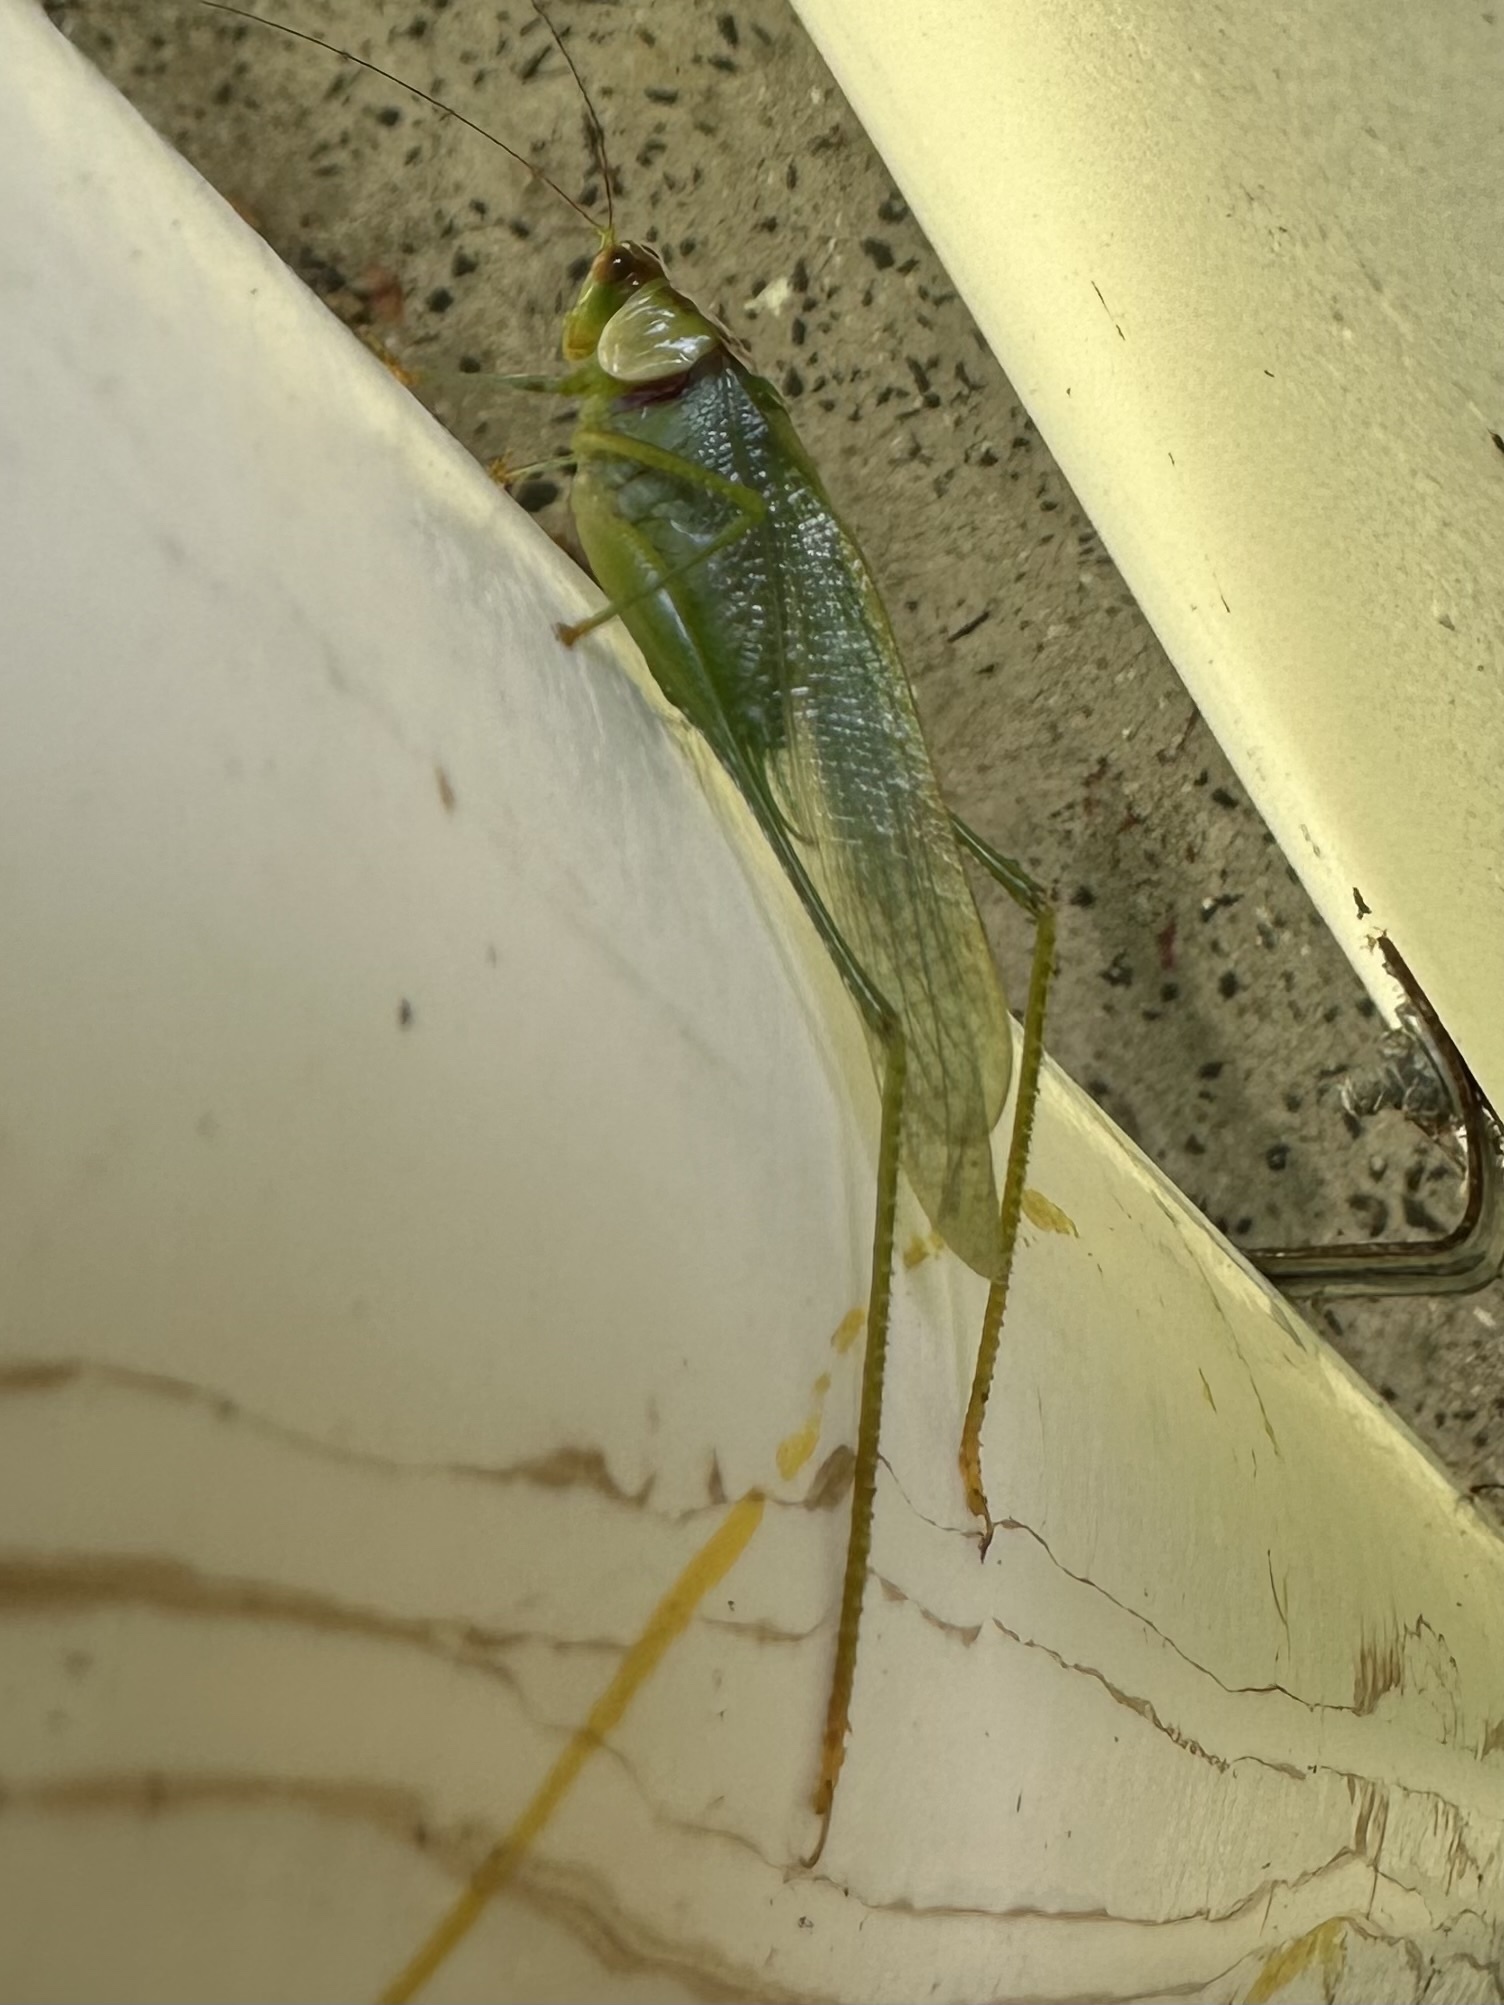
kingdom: Animalia
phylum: Arthropoda
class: Insecta
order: Orthoptera
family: Tettigoniidae
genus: Euceraia
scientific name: Euceraia atryx
